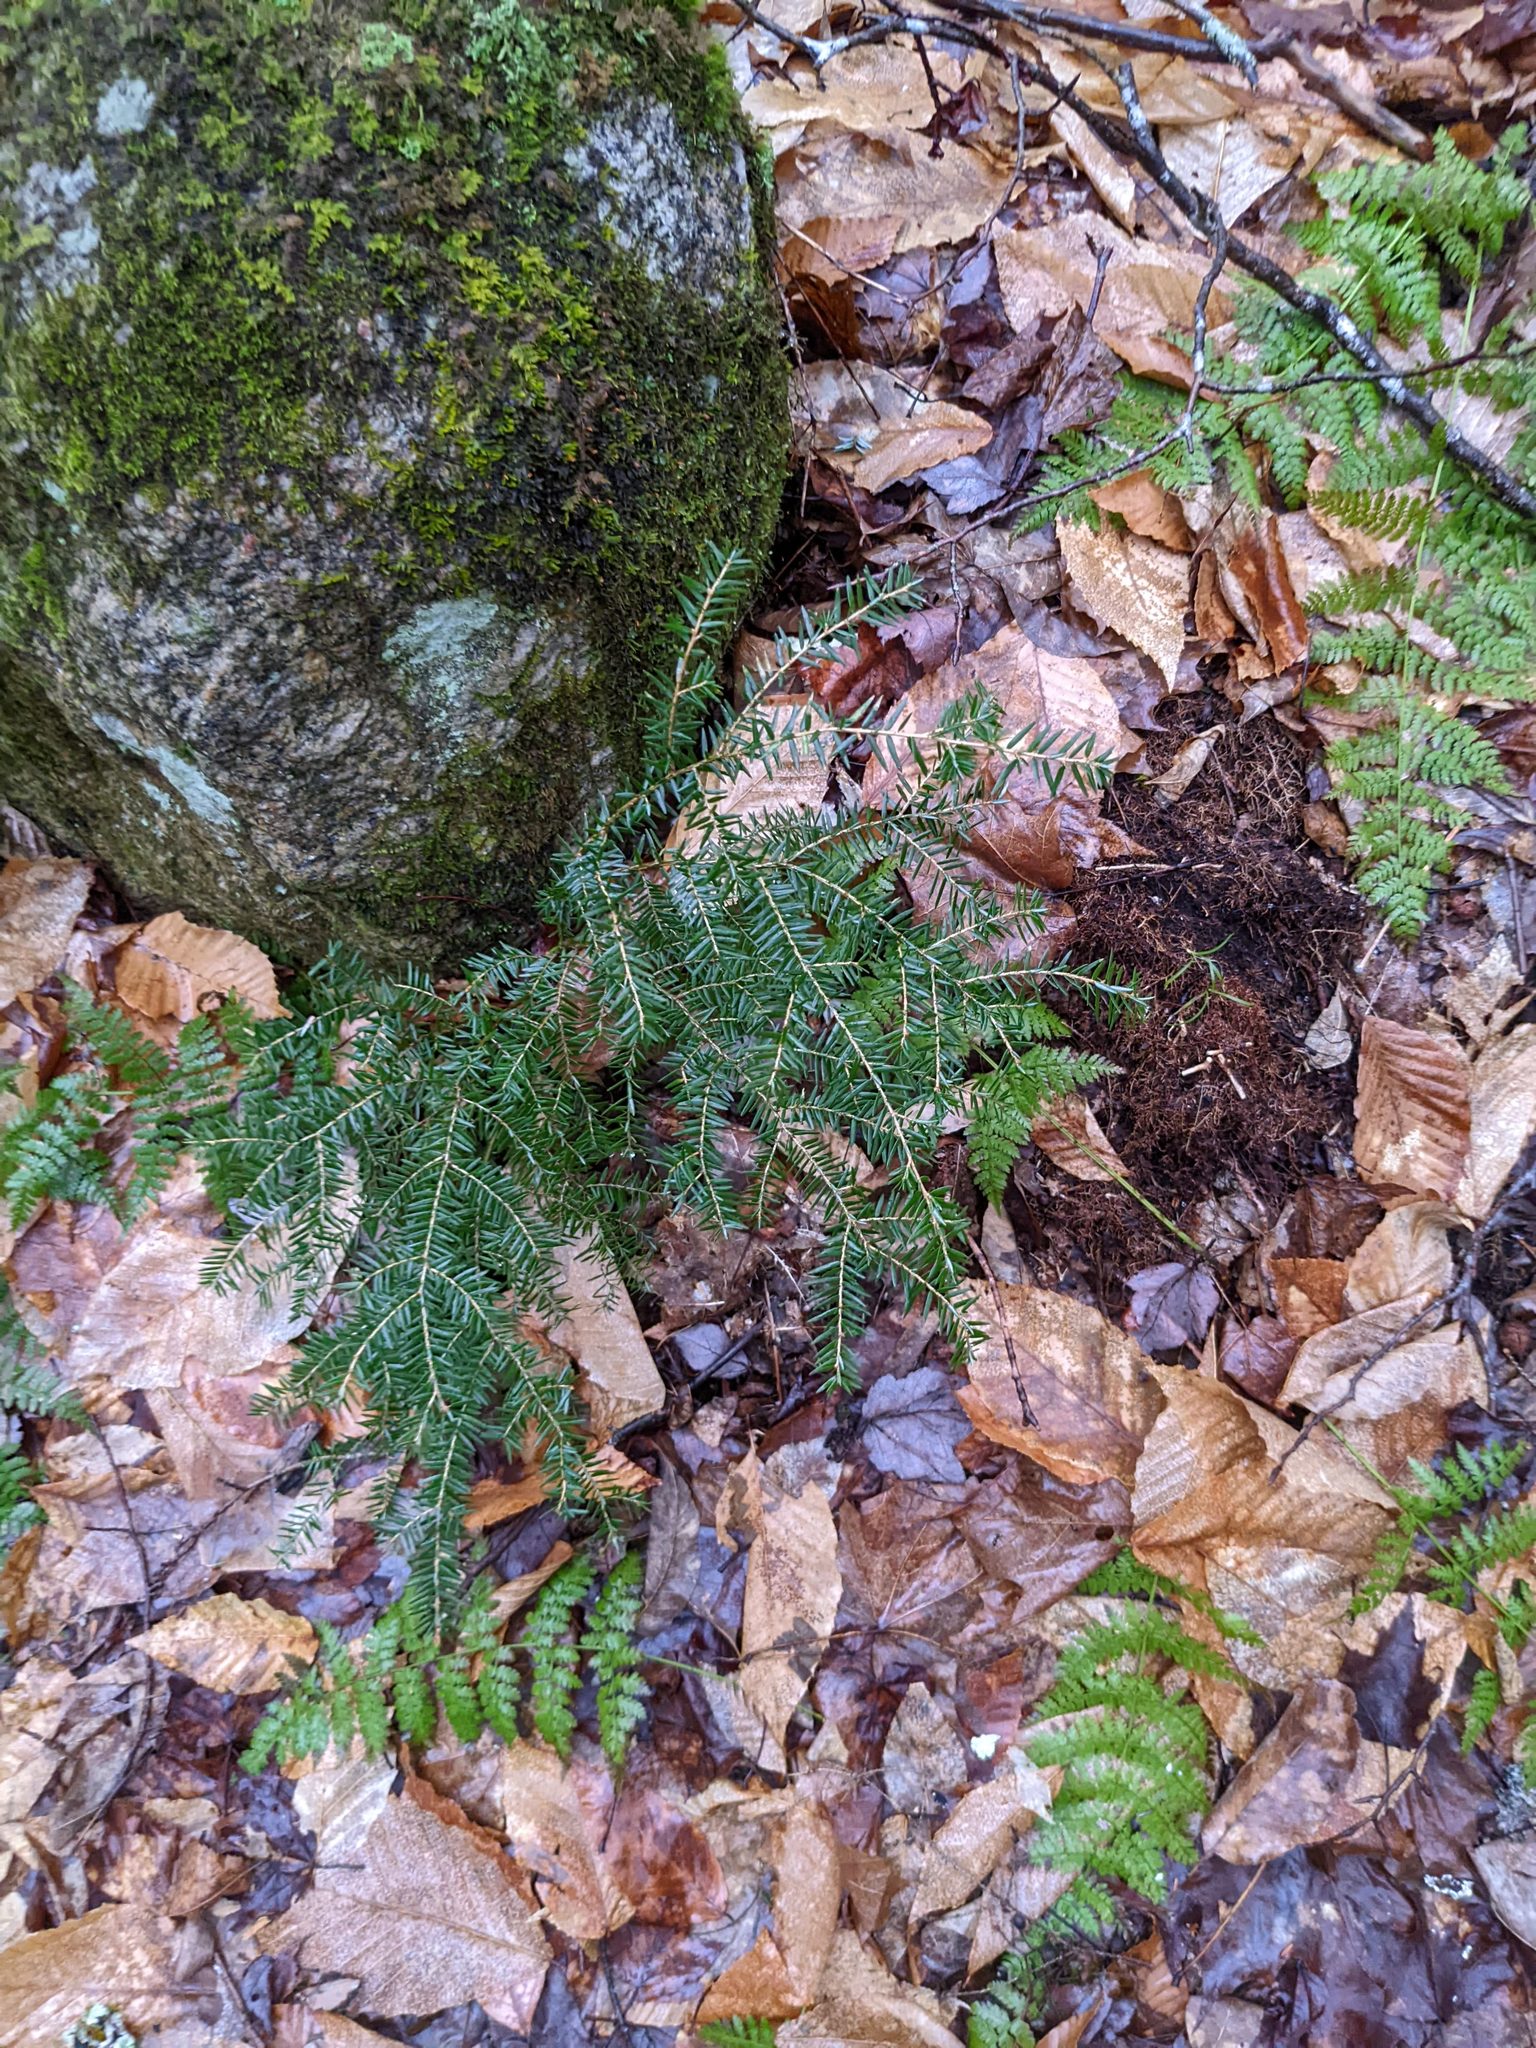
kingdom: Plantae
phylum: Tracheophyta
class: Pinopsida
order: Pinales
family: Pinaceae
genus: Tsuga
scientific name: Tsuga canadensis
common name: Eastern hemlock
